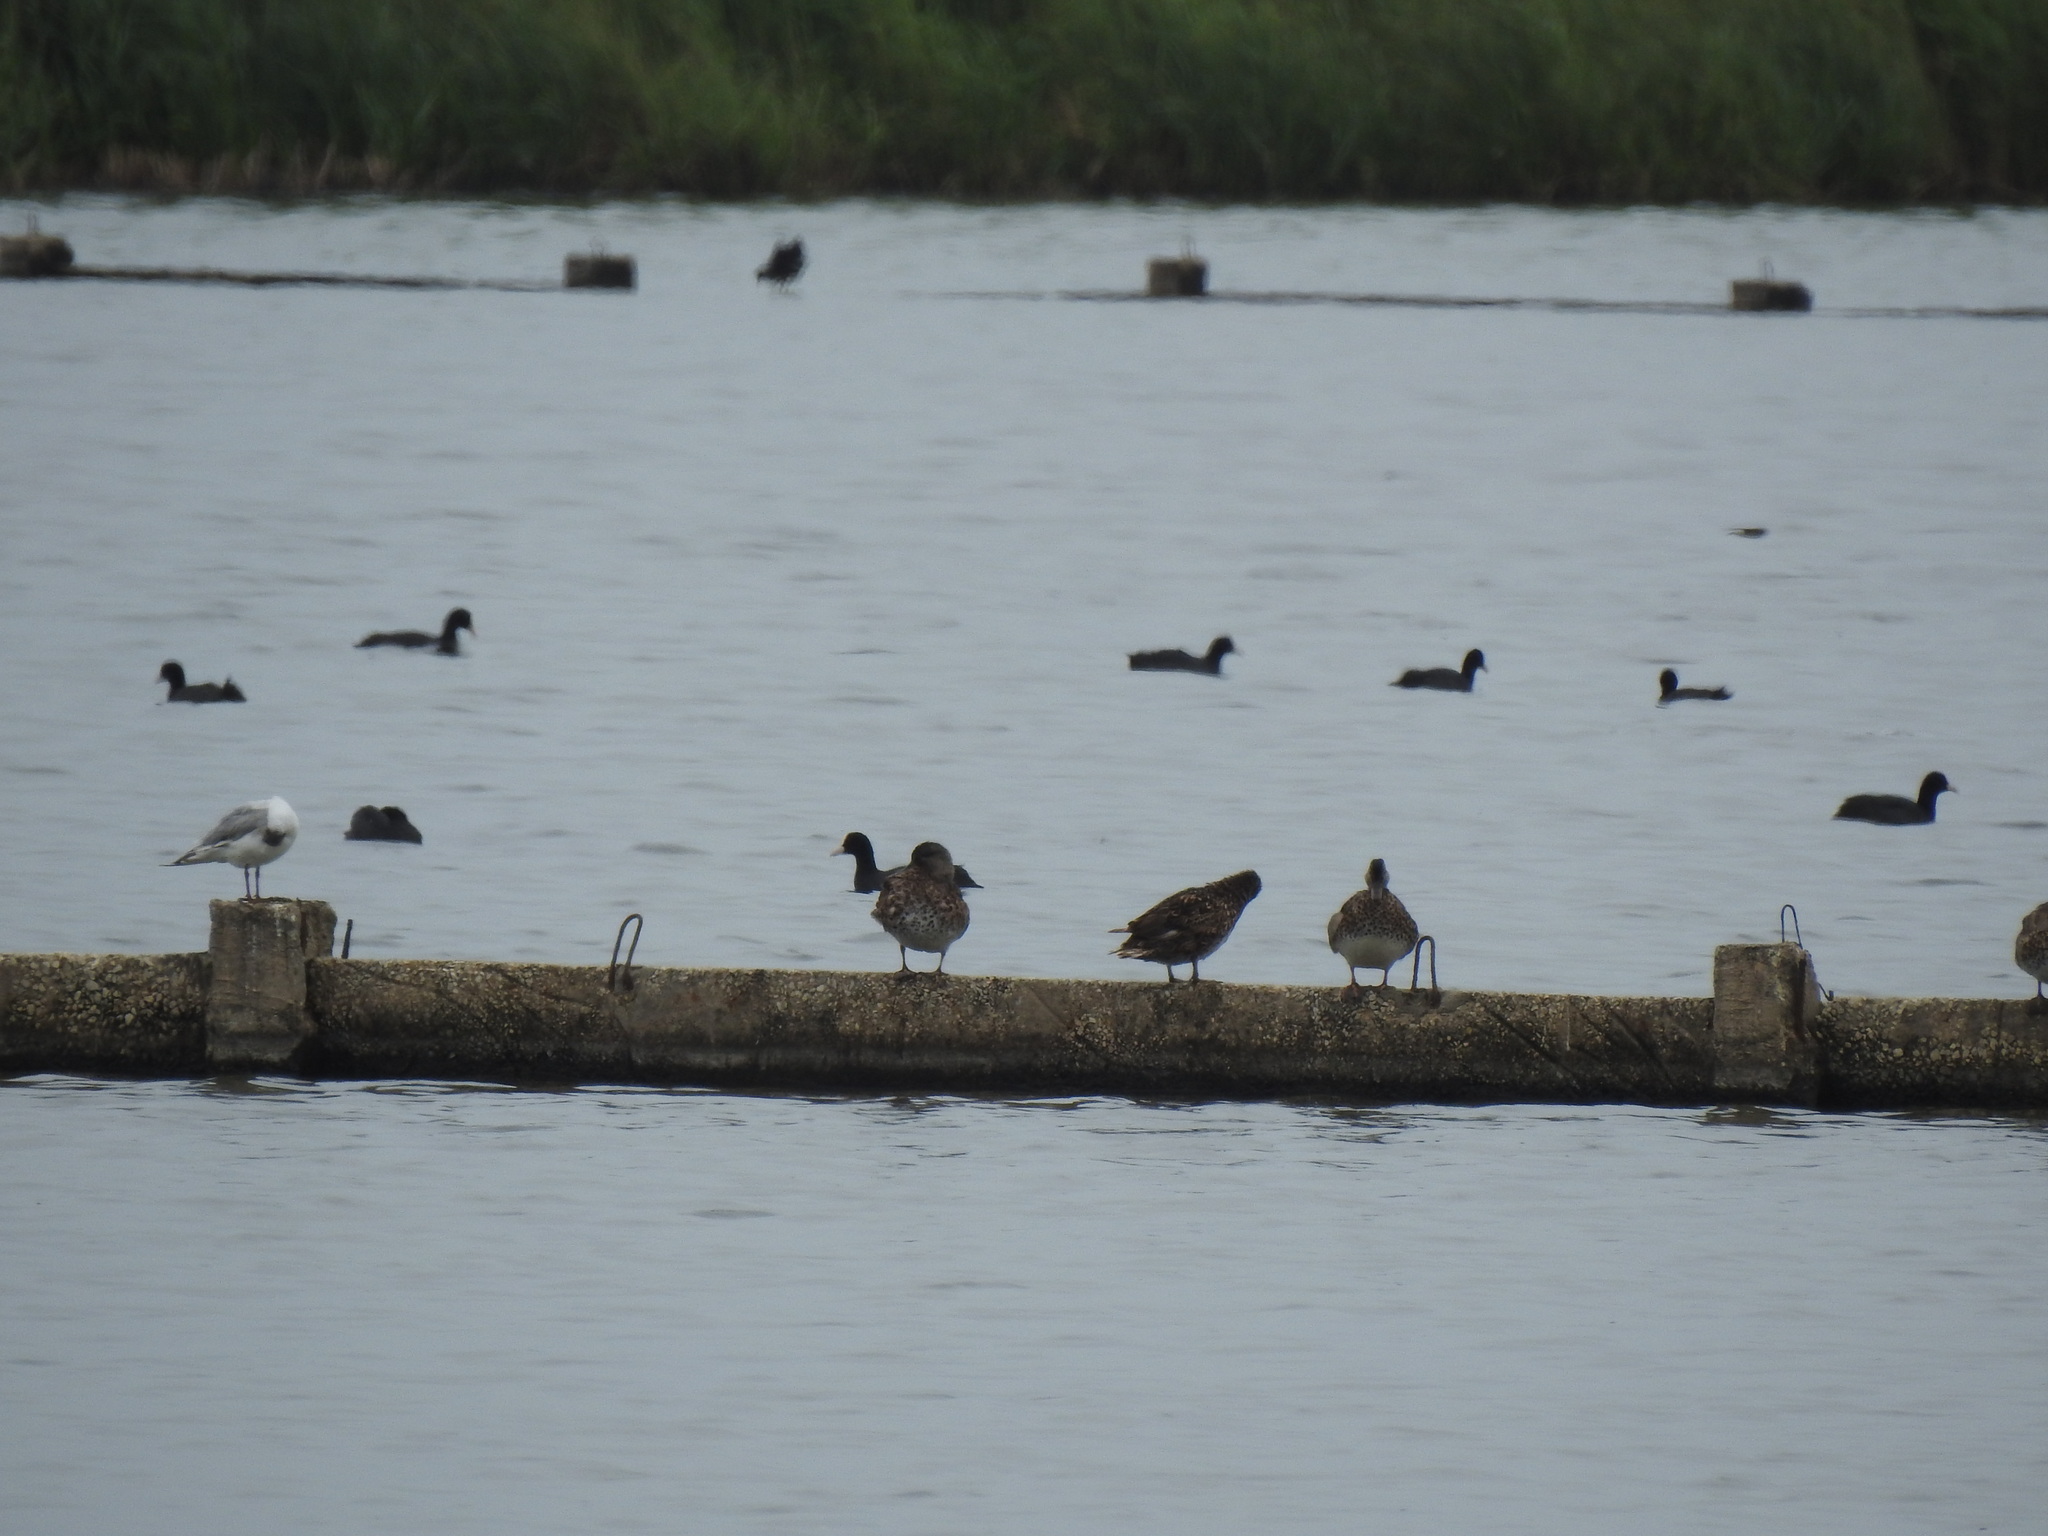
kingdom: Animalia
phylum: Chordata
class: Aves
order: Anseriformes
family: Anatidae
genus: Mareca
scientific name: Mareca strepera
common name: Gadwall
